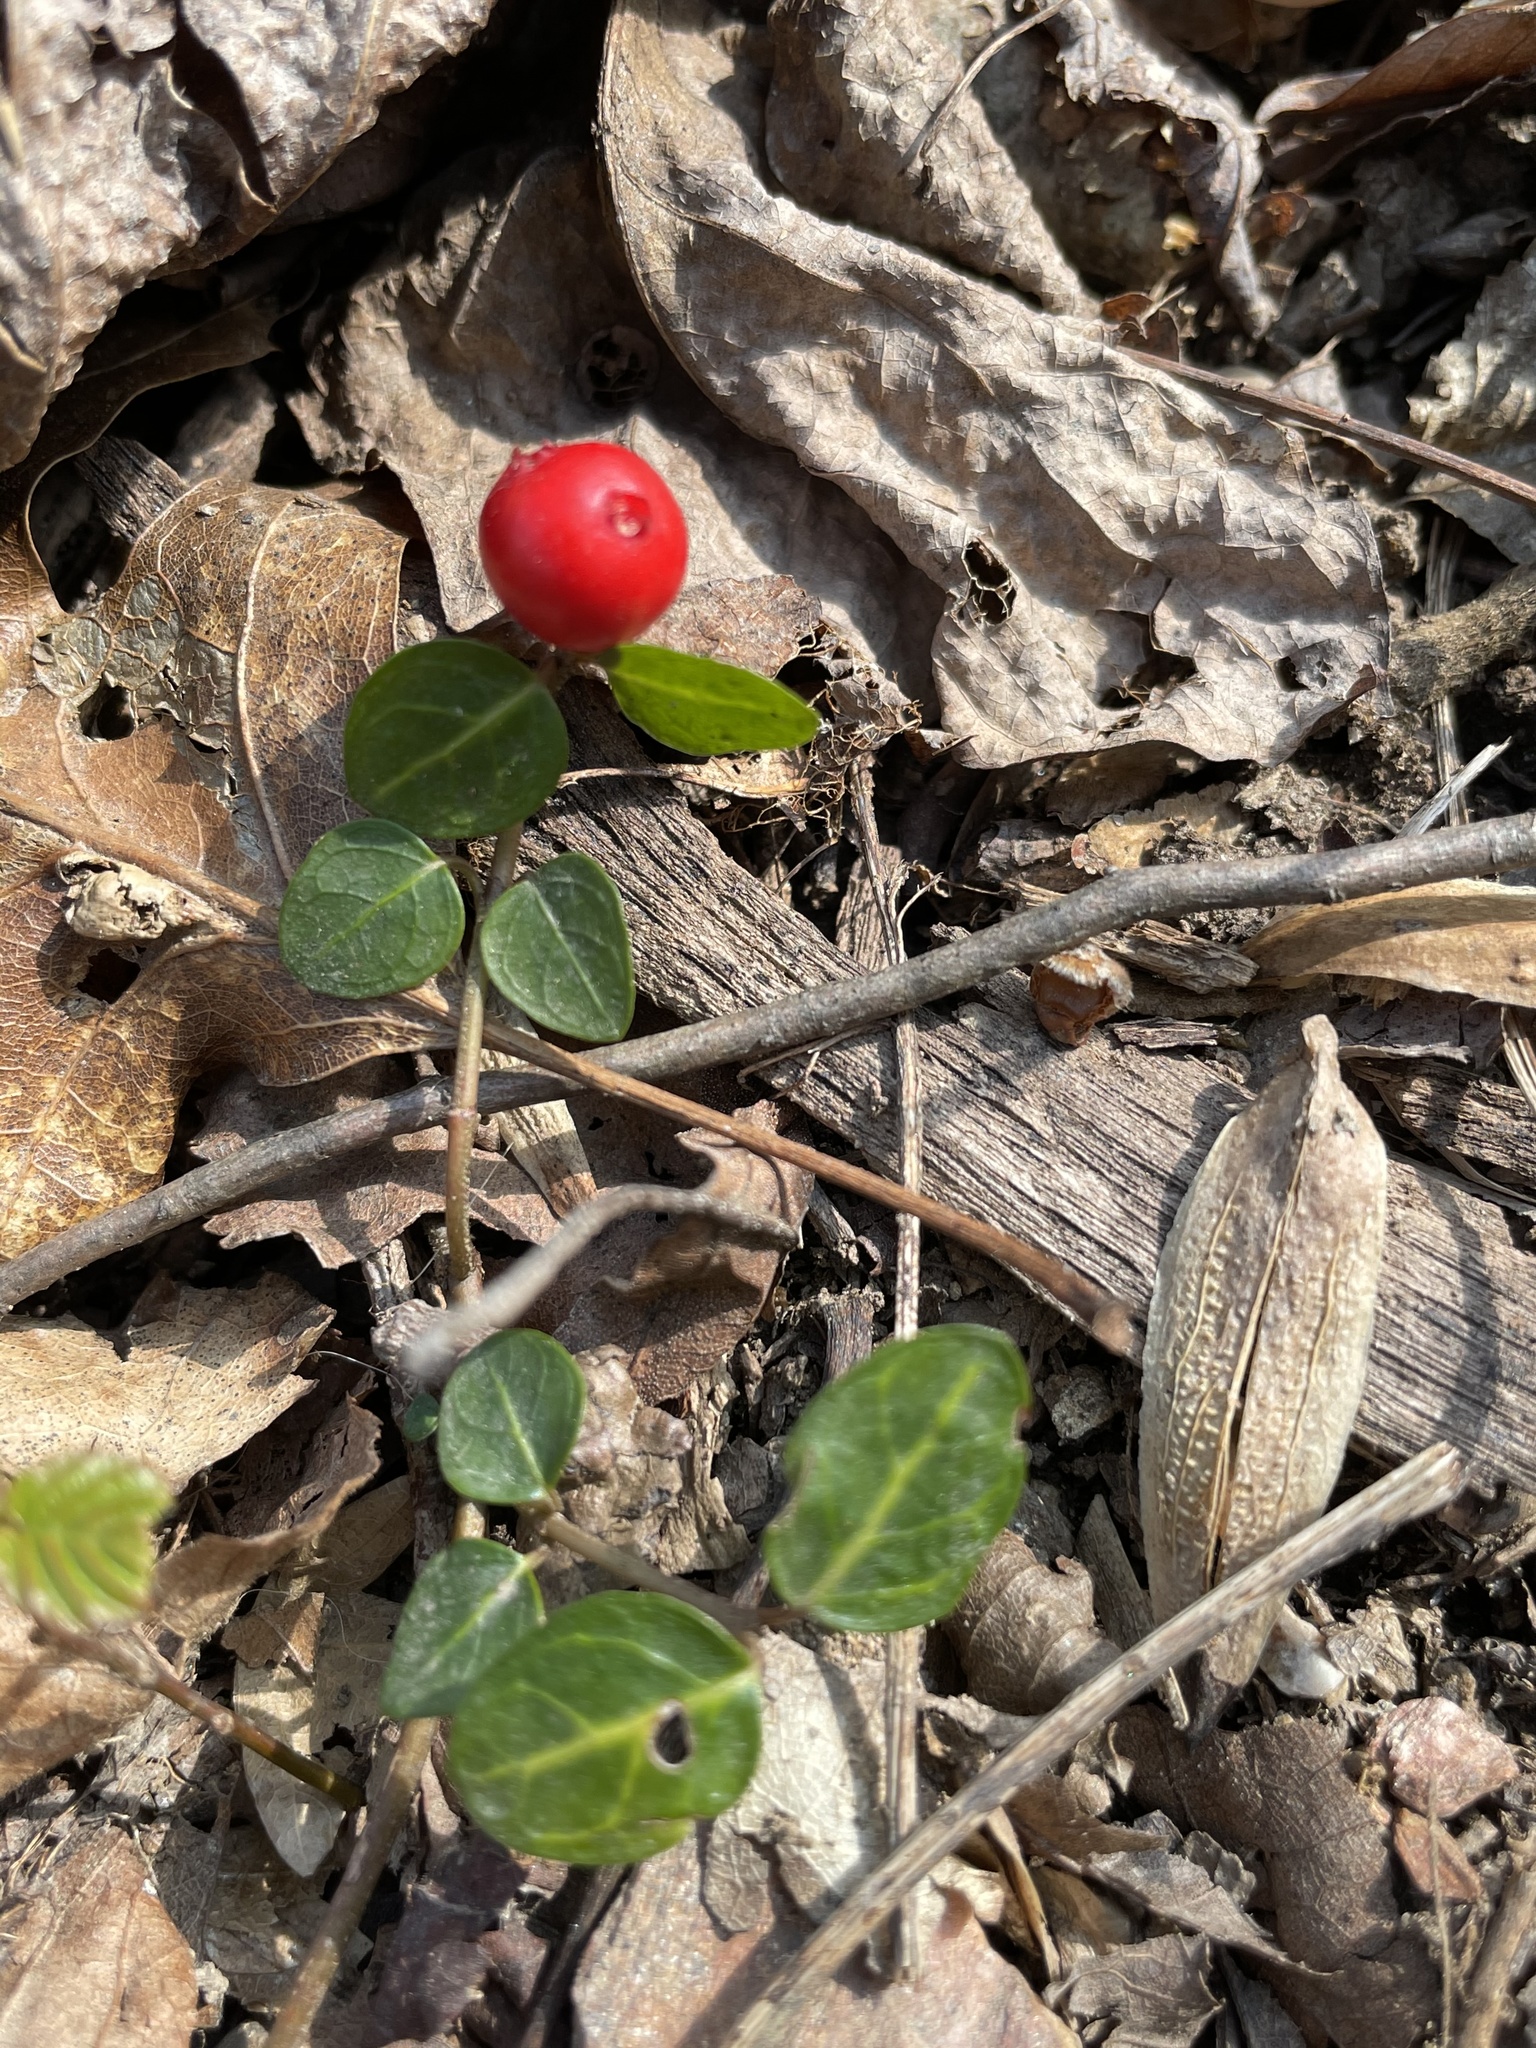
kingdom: Plantae
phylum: Tracheophyta
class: Magnoliopsida
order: Gentianales
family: Rubiaceae
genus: Mitchella
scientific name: Mitchella repens
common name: Partridge-berry
